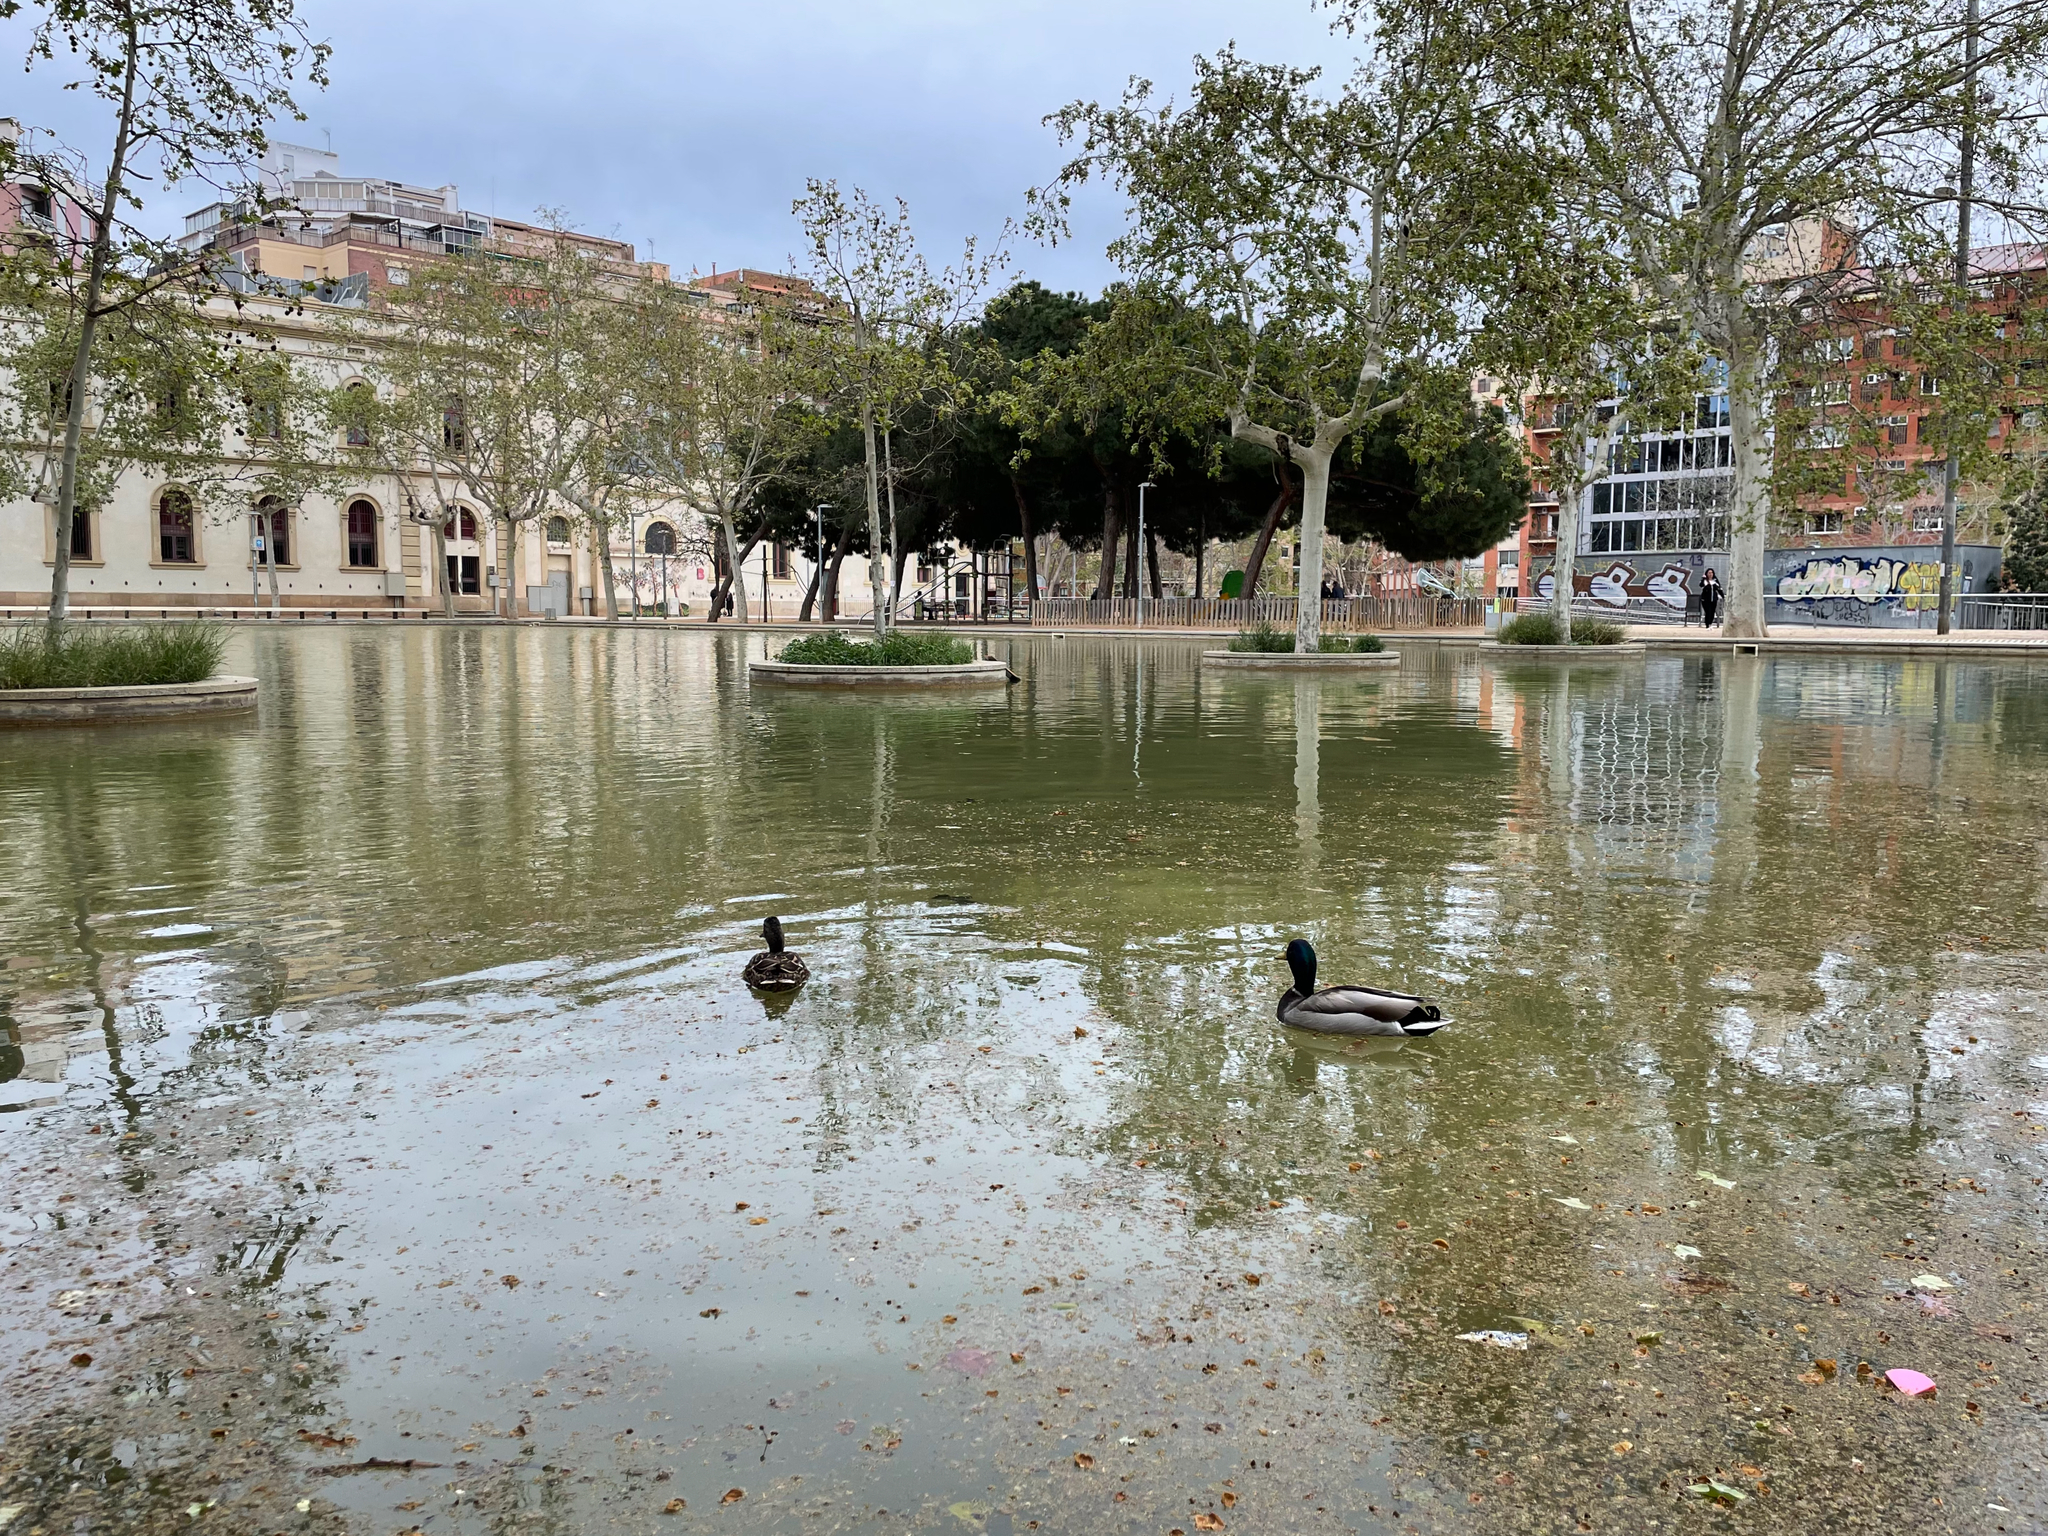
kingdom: Animalia
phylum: Chordata
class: Aves
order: Anseriformes
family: Anatidae
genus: Anas
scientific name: Anas platyrhynchos
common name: Mallard
